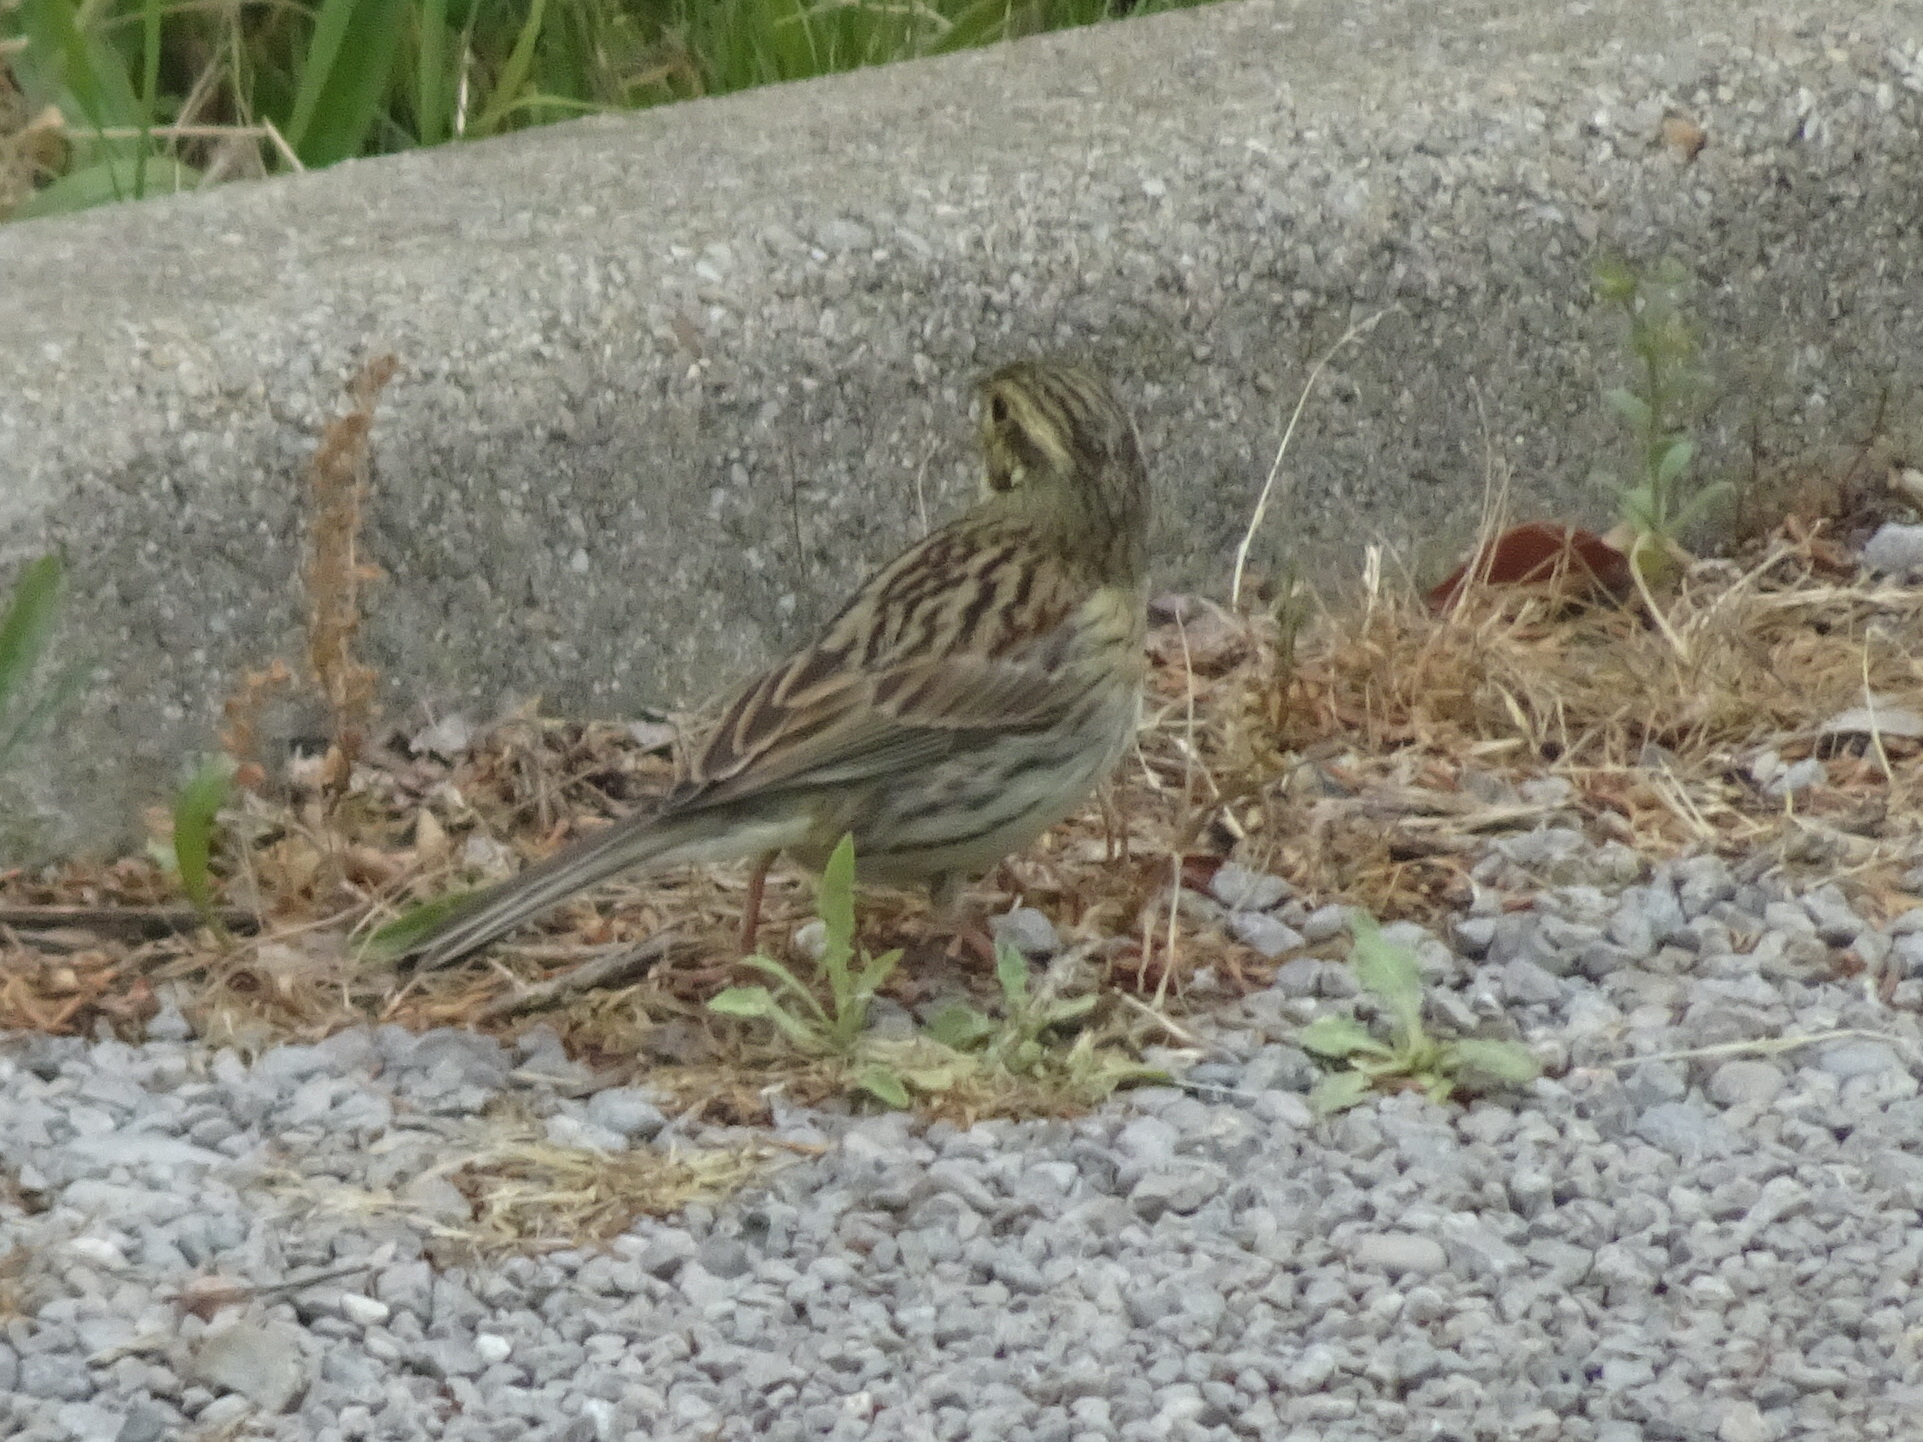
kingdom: Animalia
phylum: Chordata
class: Aves
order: Passeriformes
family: Emberizidae
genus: Emberiza
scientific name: Emberiza cirlus
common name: Cirl bunting
